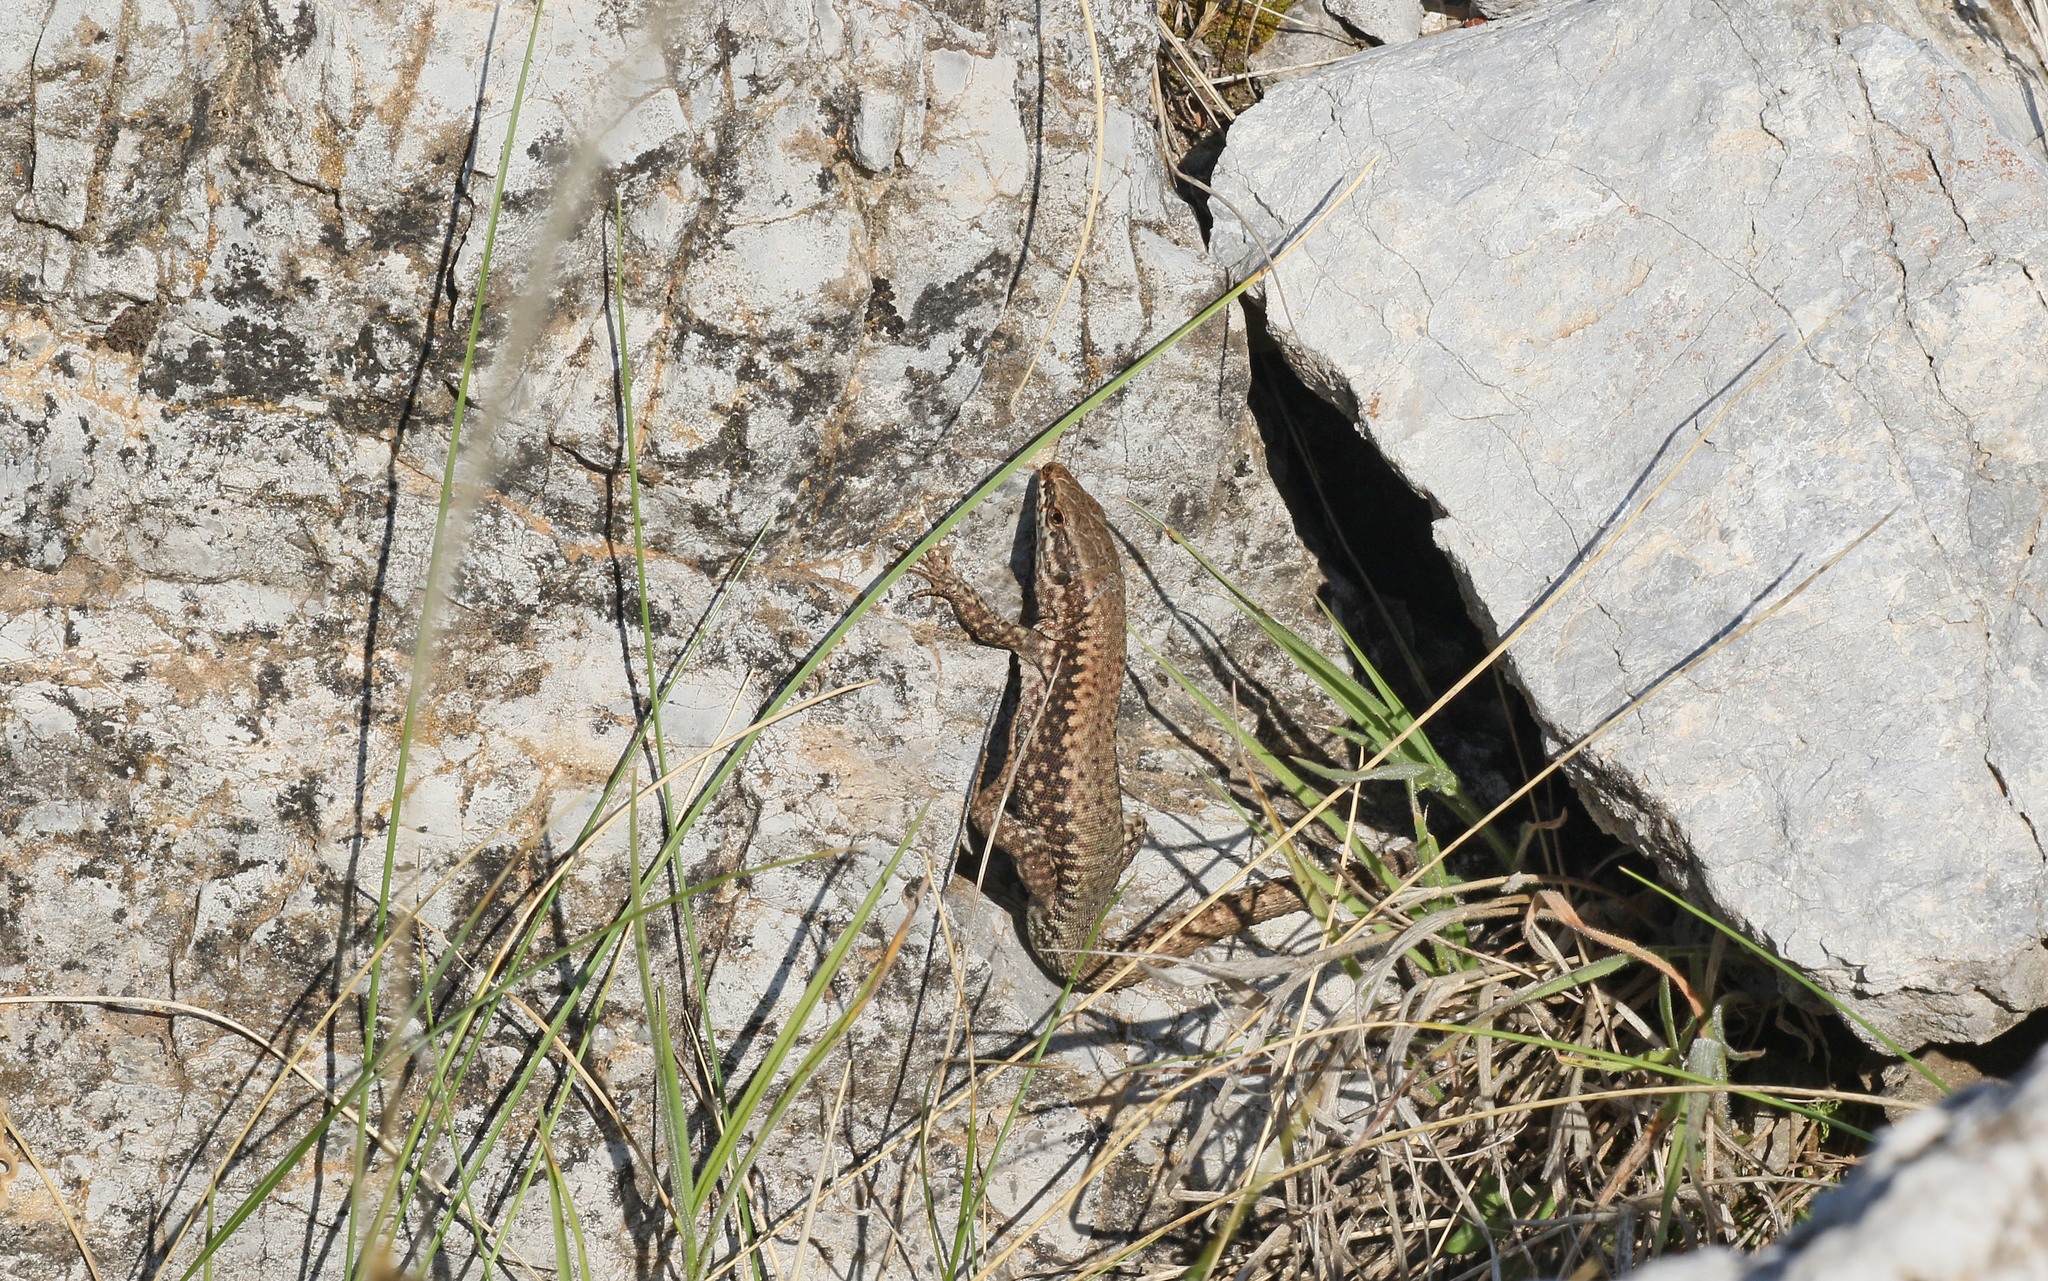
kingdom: Animalia
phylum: Chordata
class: Squamata
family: Lacertidae
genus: Podarcis
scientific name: Podarcis muralis
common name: Common wall lizard
